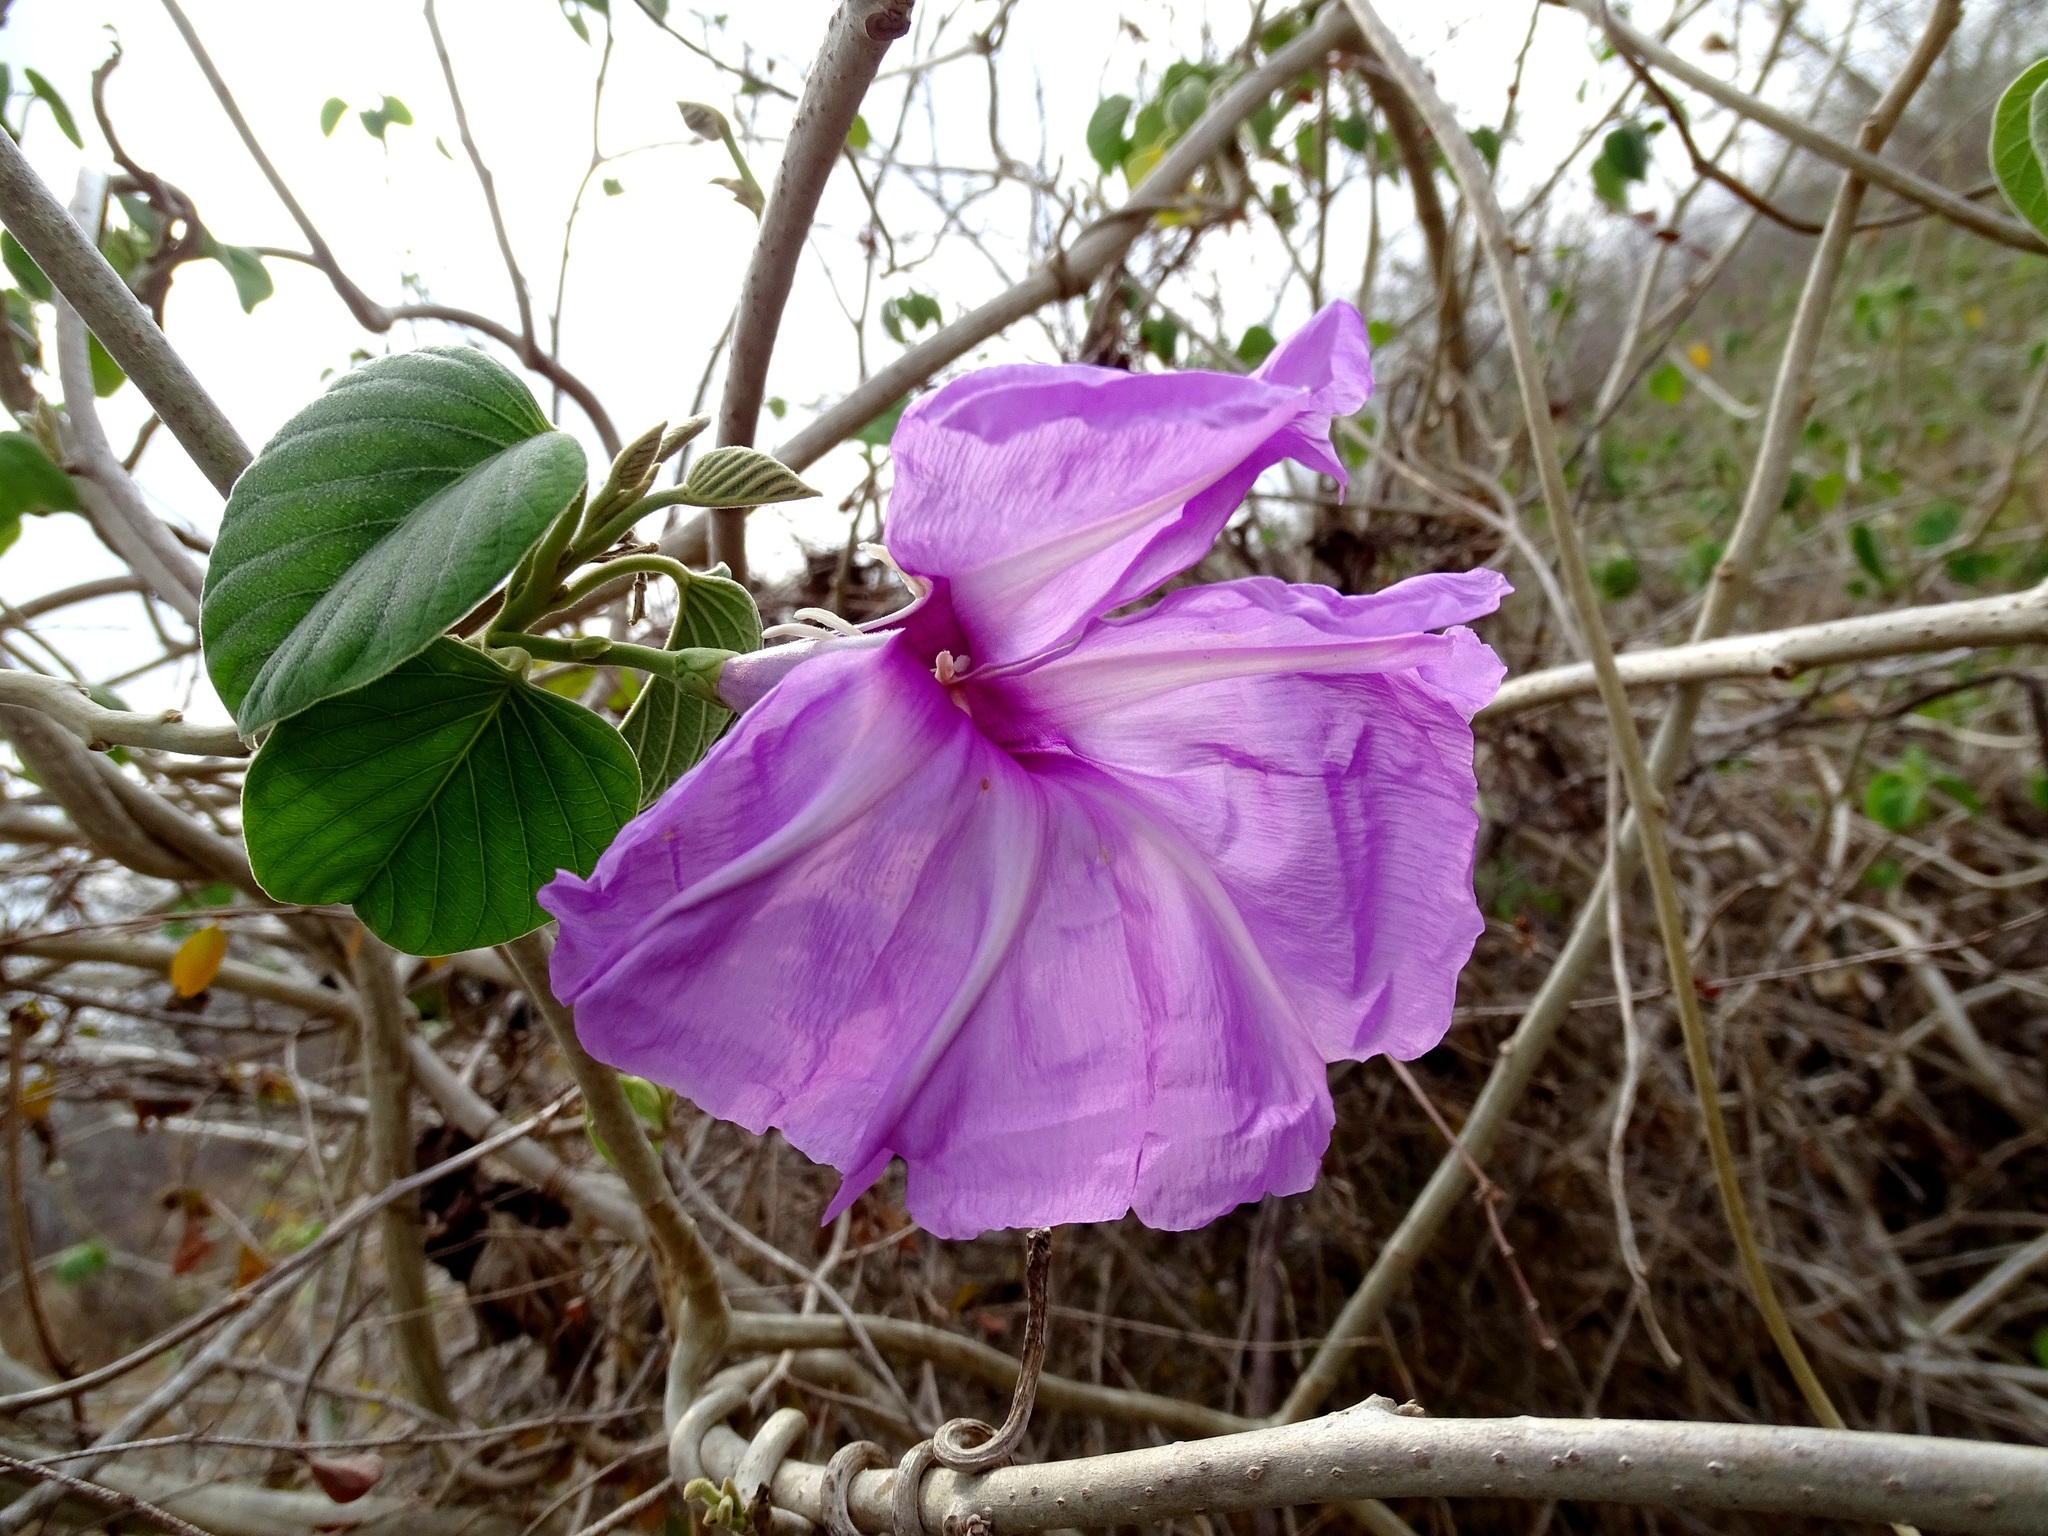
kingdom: Plantae
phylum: Tracheophyta
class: Magnoliopsida
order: Solanales
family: Convolvulaceae
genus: Ipomoea
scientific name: Ipomoea carnea
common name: Morning-glory
